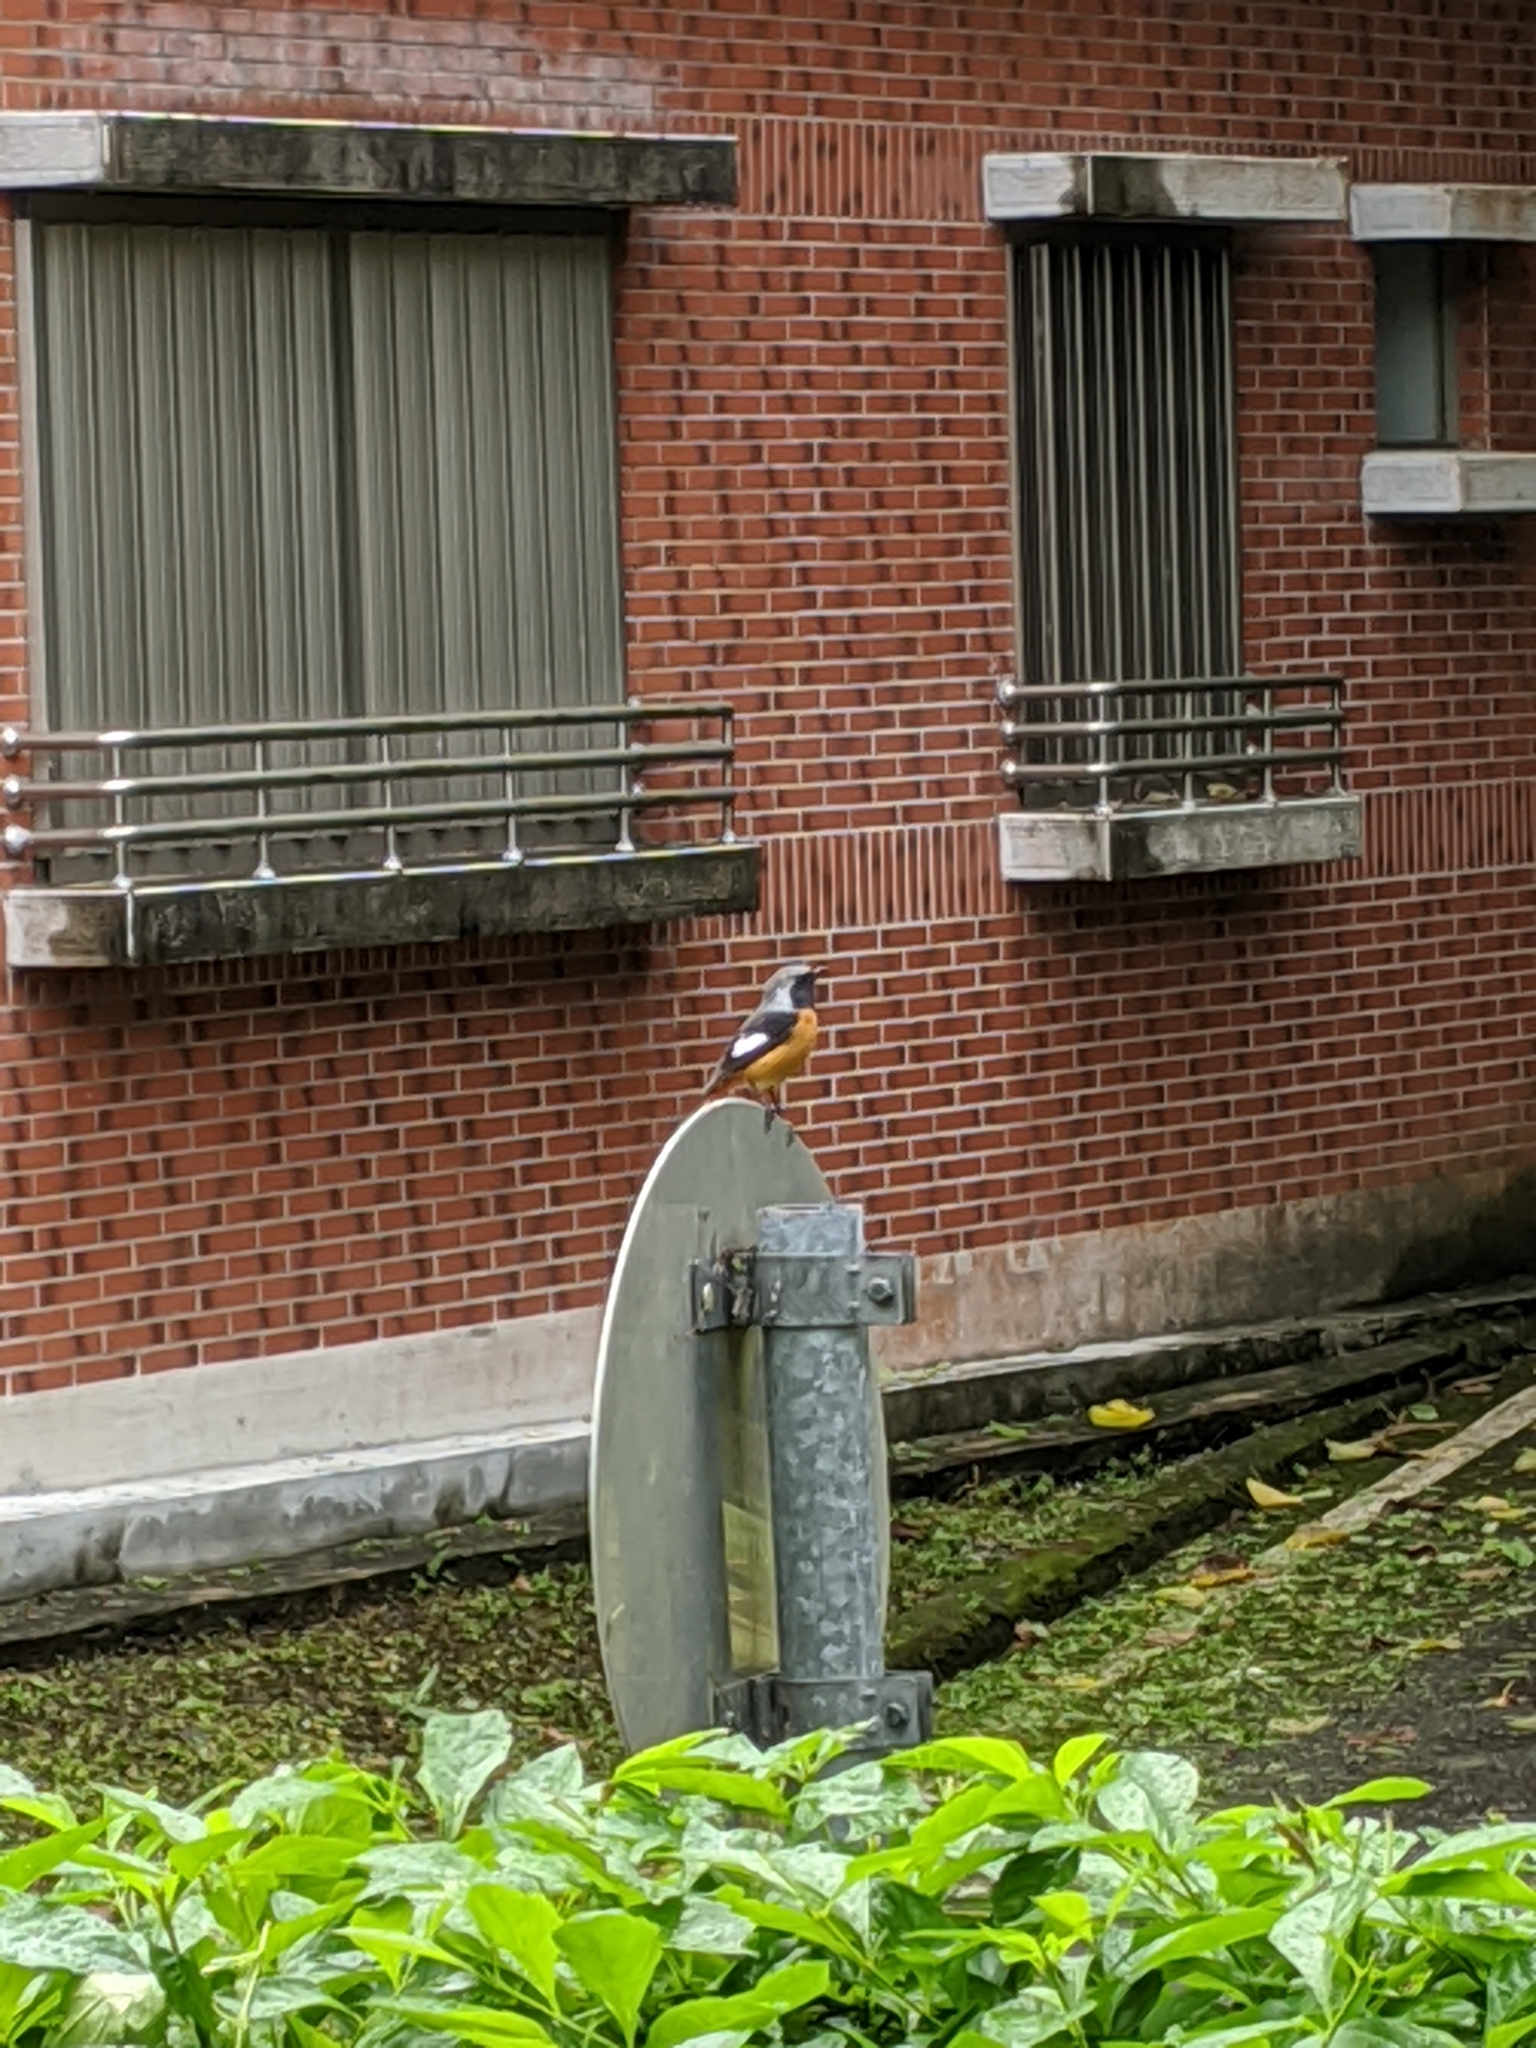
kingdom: Animalia
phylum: Chordata
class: Aves
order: Passeriformes
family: Muscicapidae
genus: Phoenicurus
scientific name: Phoenicurus auroreus
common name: Daurian redstart
